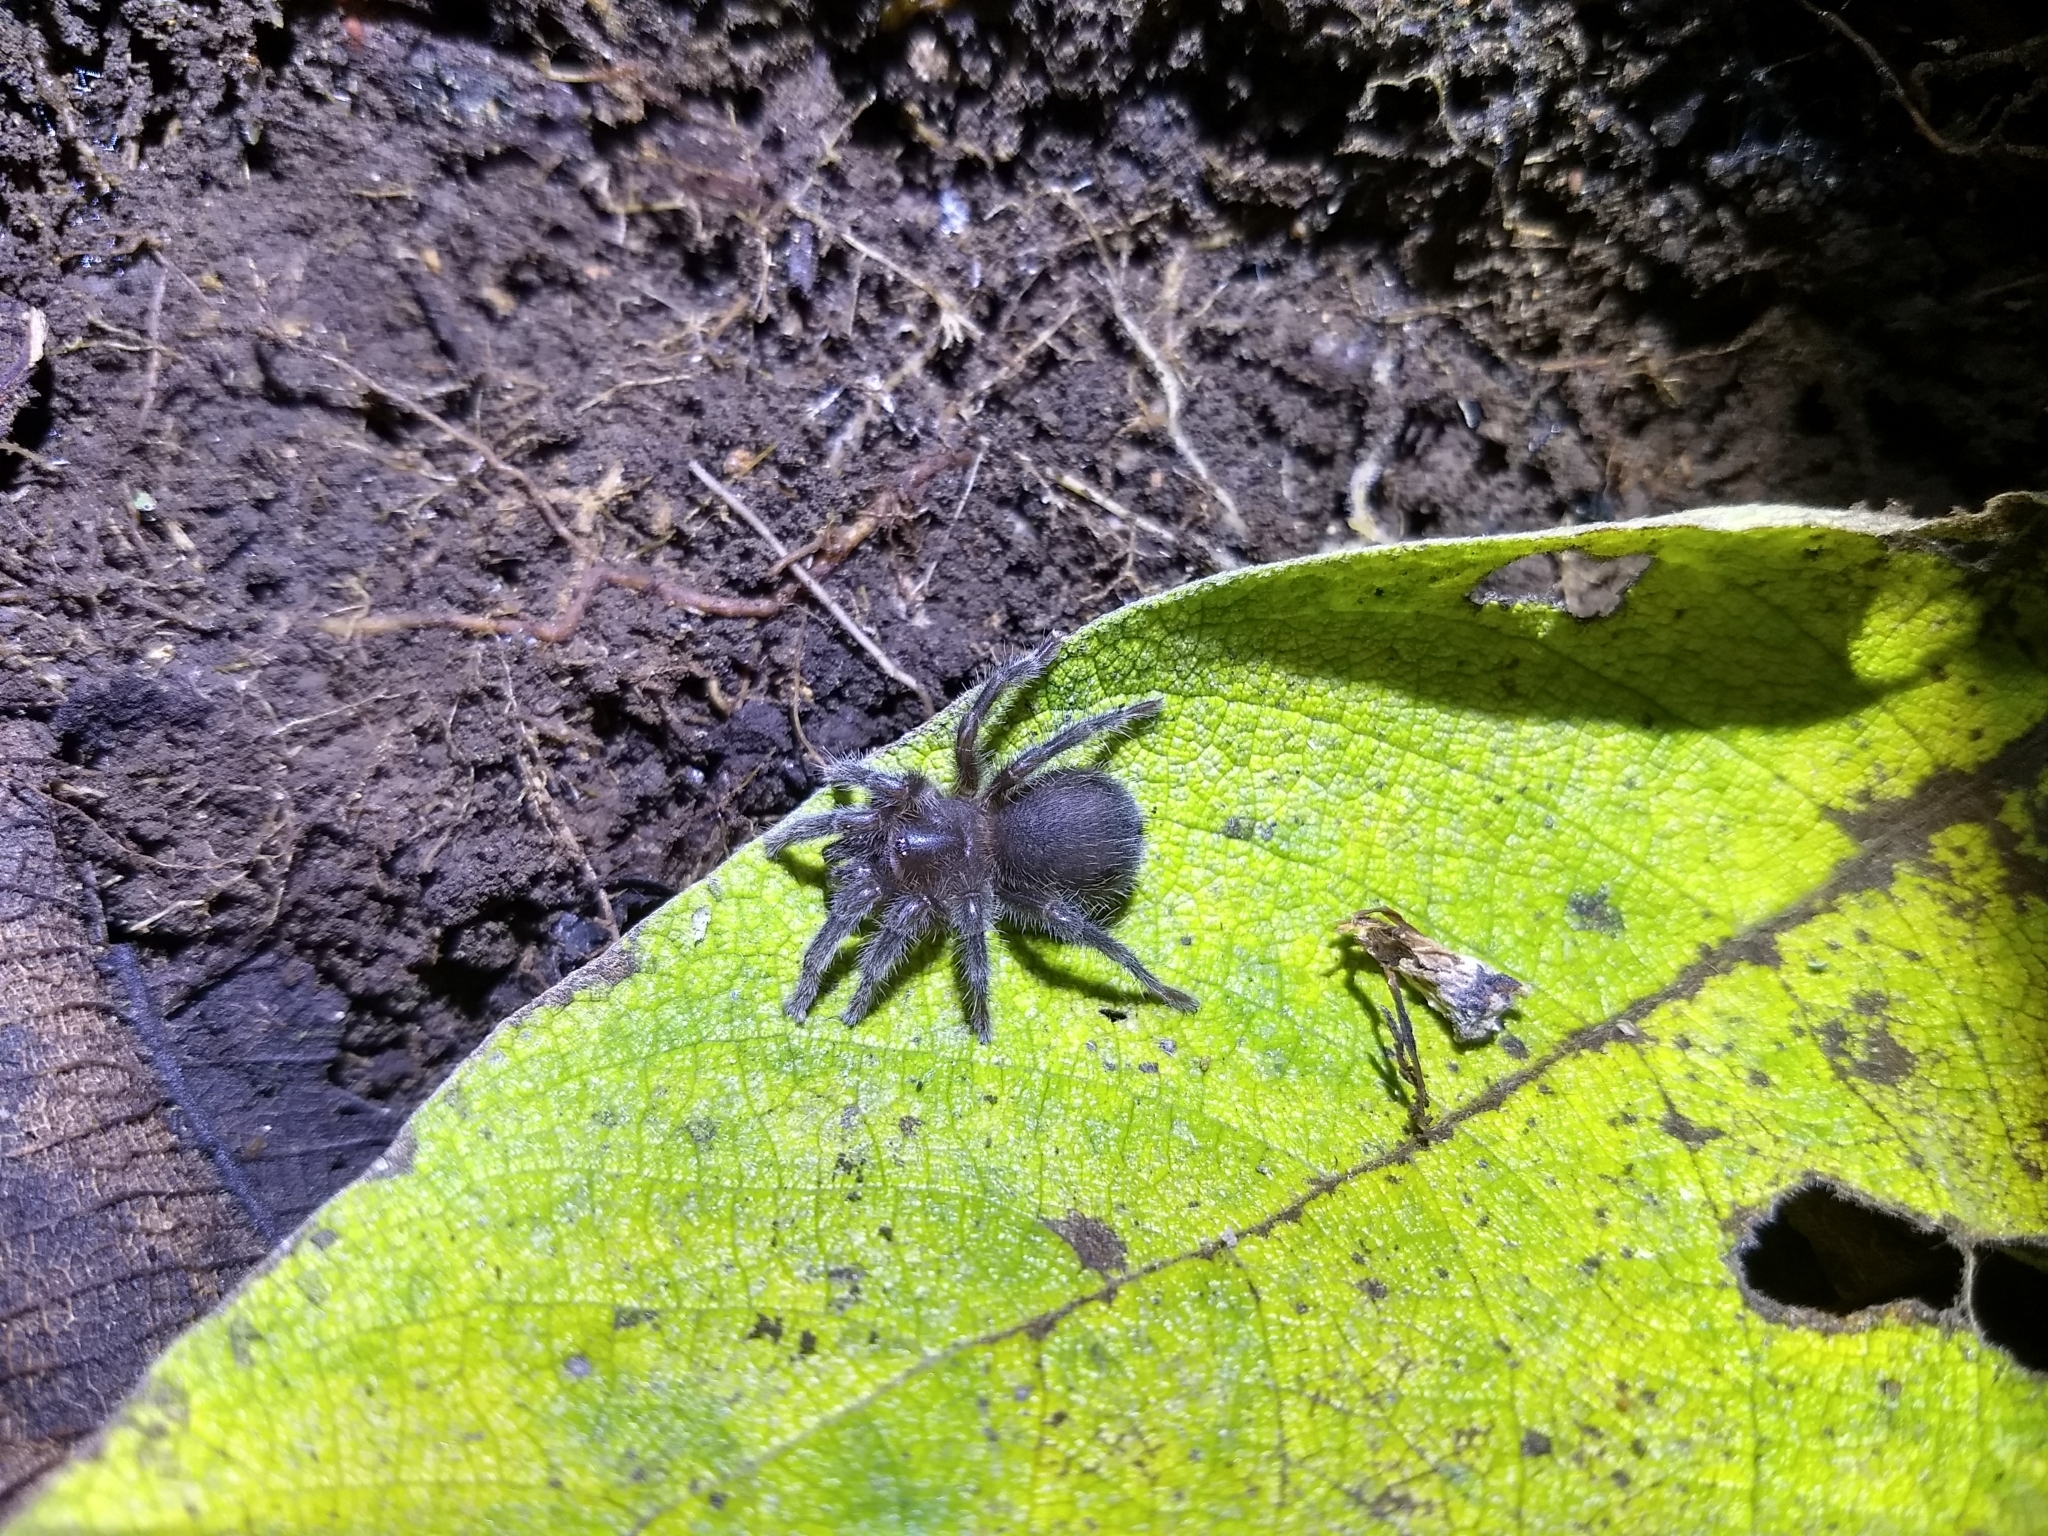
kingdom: Animalia
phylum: Arthropoda
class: Arachnida
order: Araneae
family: Theraphosidae
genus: Aguapanela
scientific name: Aguapanela arvi
